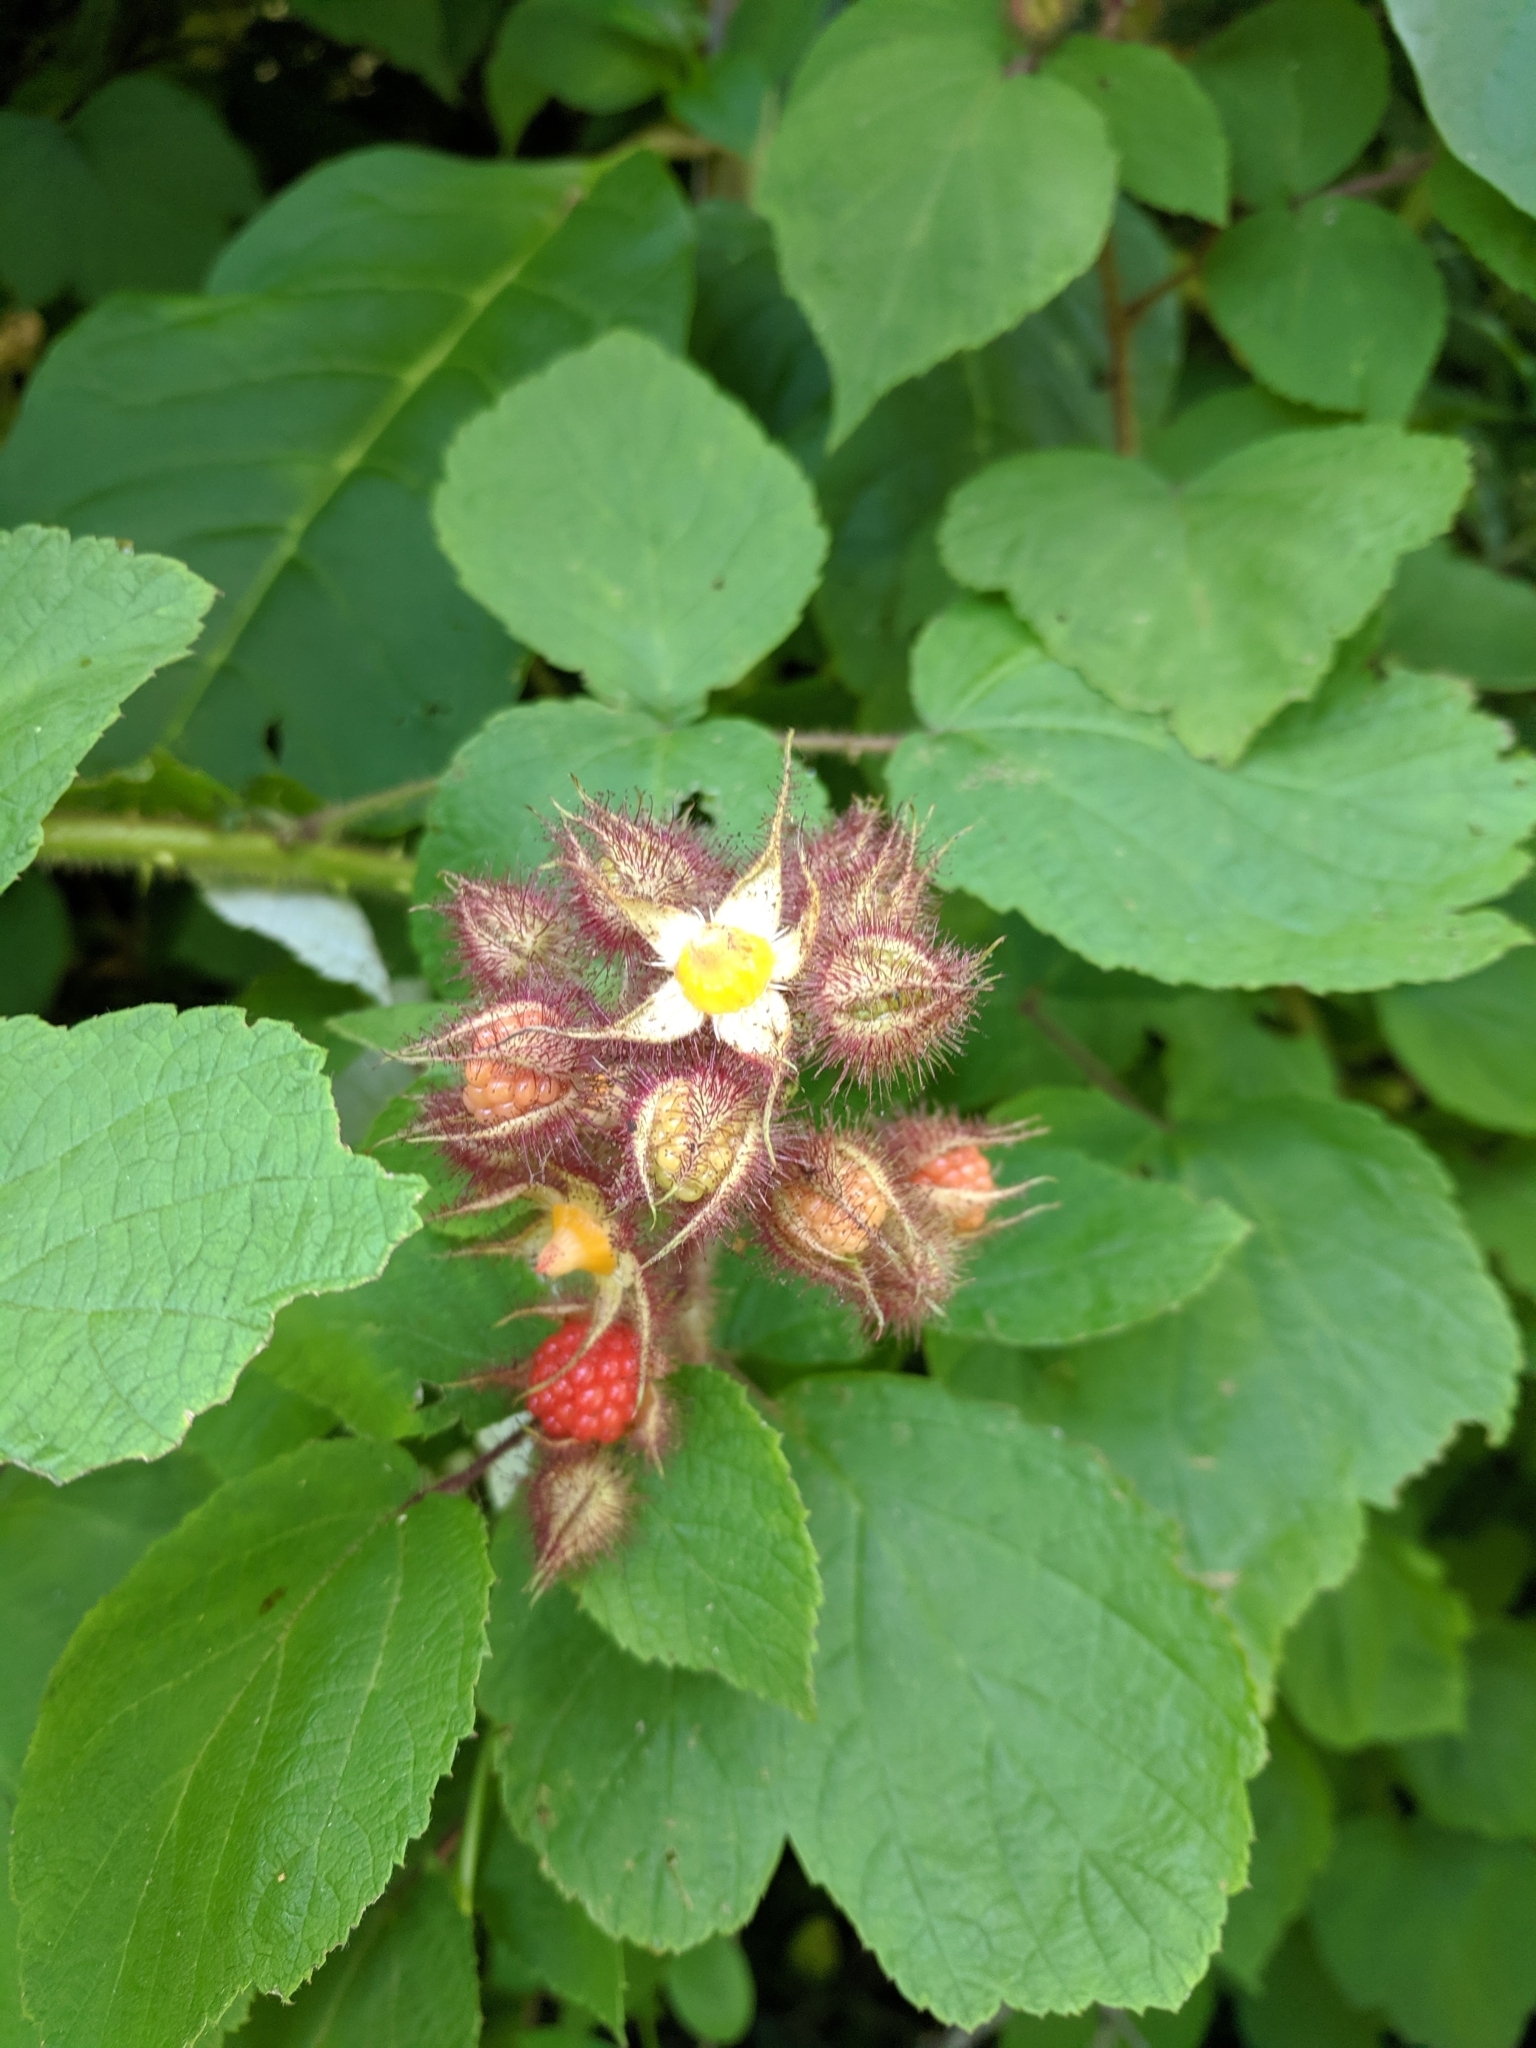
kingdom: Plantae
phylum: Tracheophyta
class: Magnoliopsida
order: Rosales
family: Rosaceae
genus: Rubus
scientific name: Rubus phoenicolasius
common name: Japanese wineberry
